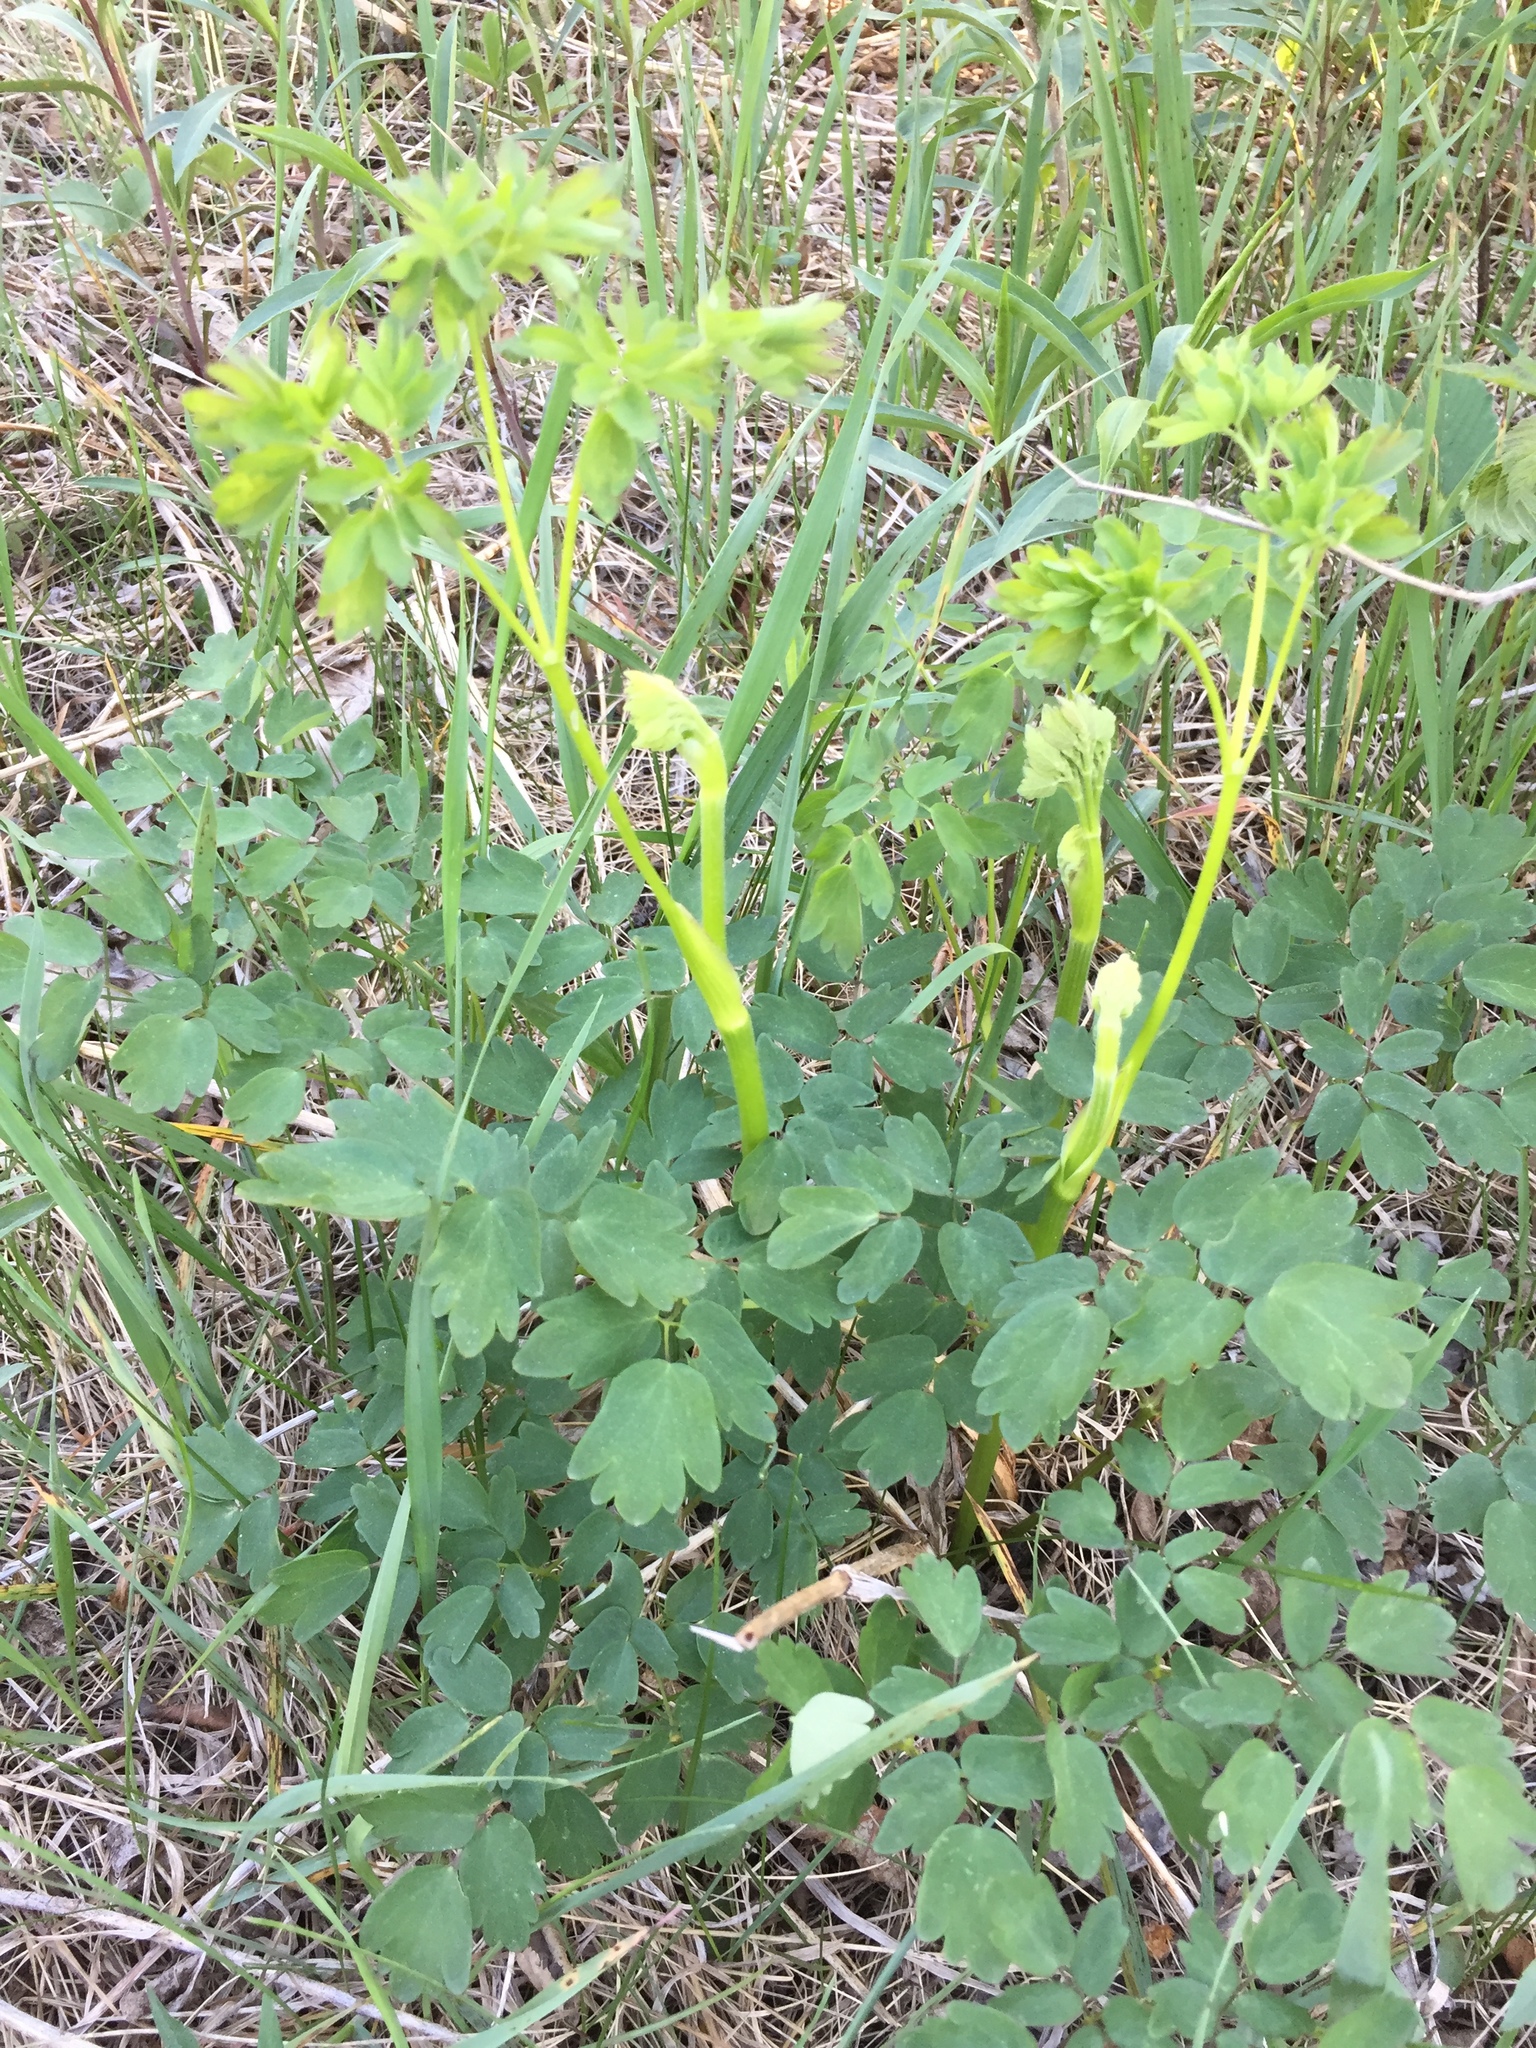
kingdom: Plantae
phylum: Tracheophyta
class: Magnoliopsida
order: Ranunculales
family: Ranunculaceae
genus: Thalictrum
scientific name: Thalictrum dasycarpum
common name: Purple meadow-rue
